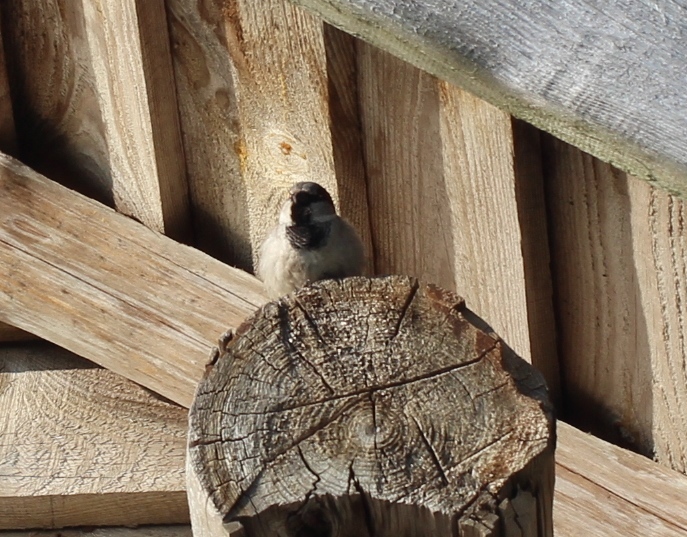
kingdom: Animalia
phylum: Chordata
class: Aves
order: Passeriformes
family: Passeridae
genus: Passer
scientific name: Passer domesticus
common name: House sparrow
